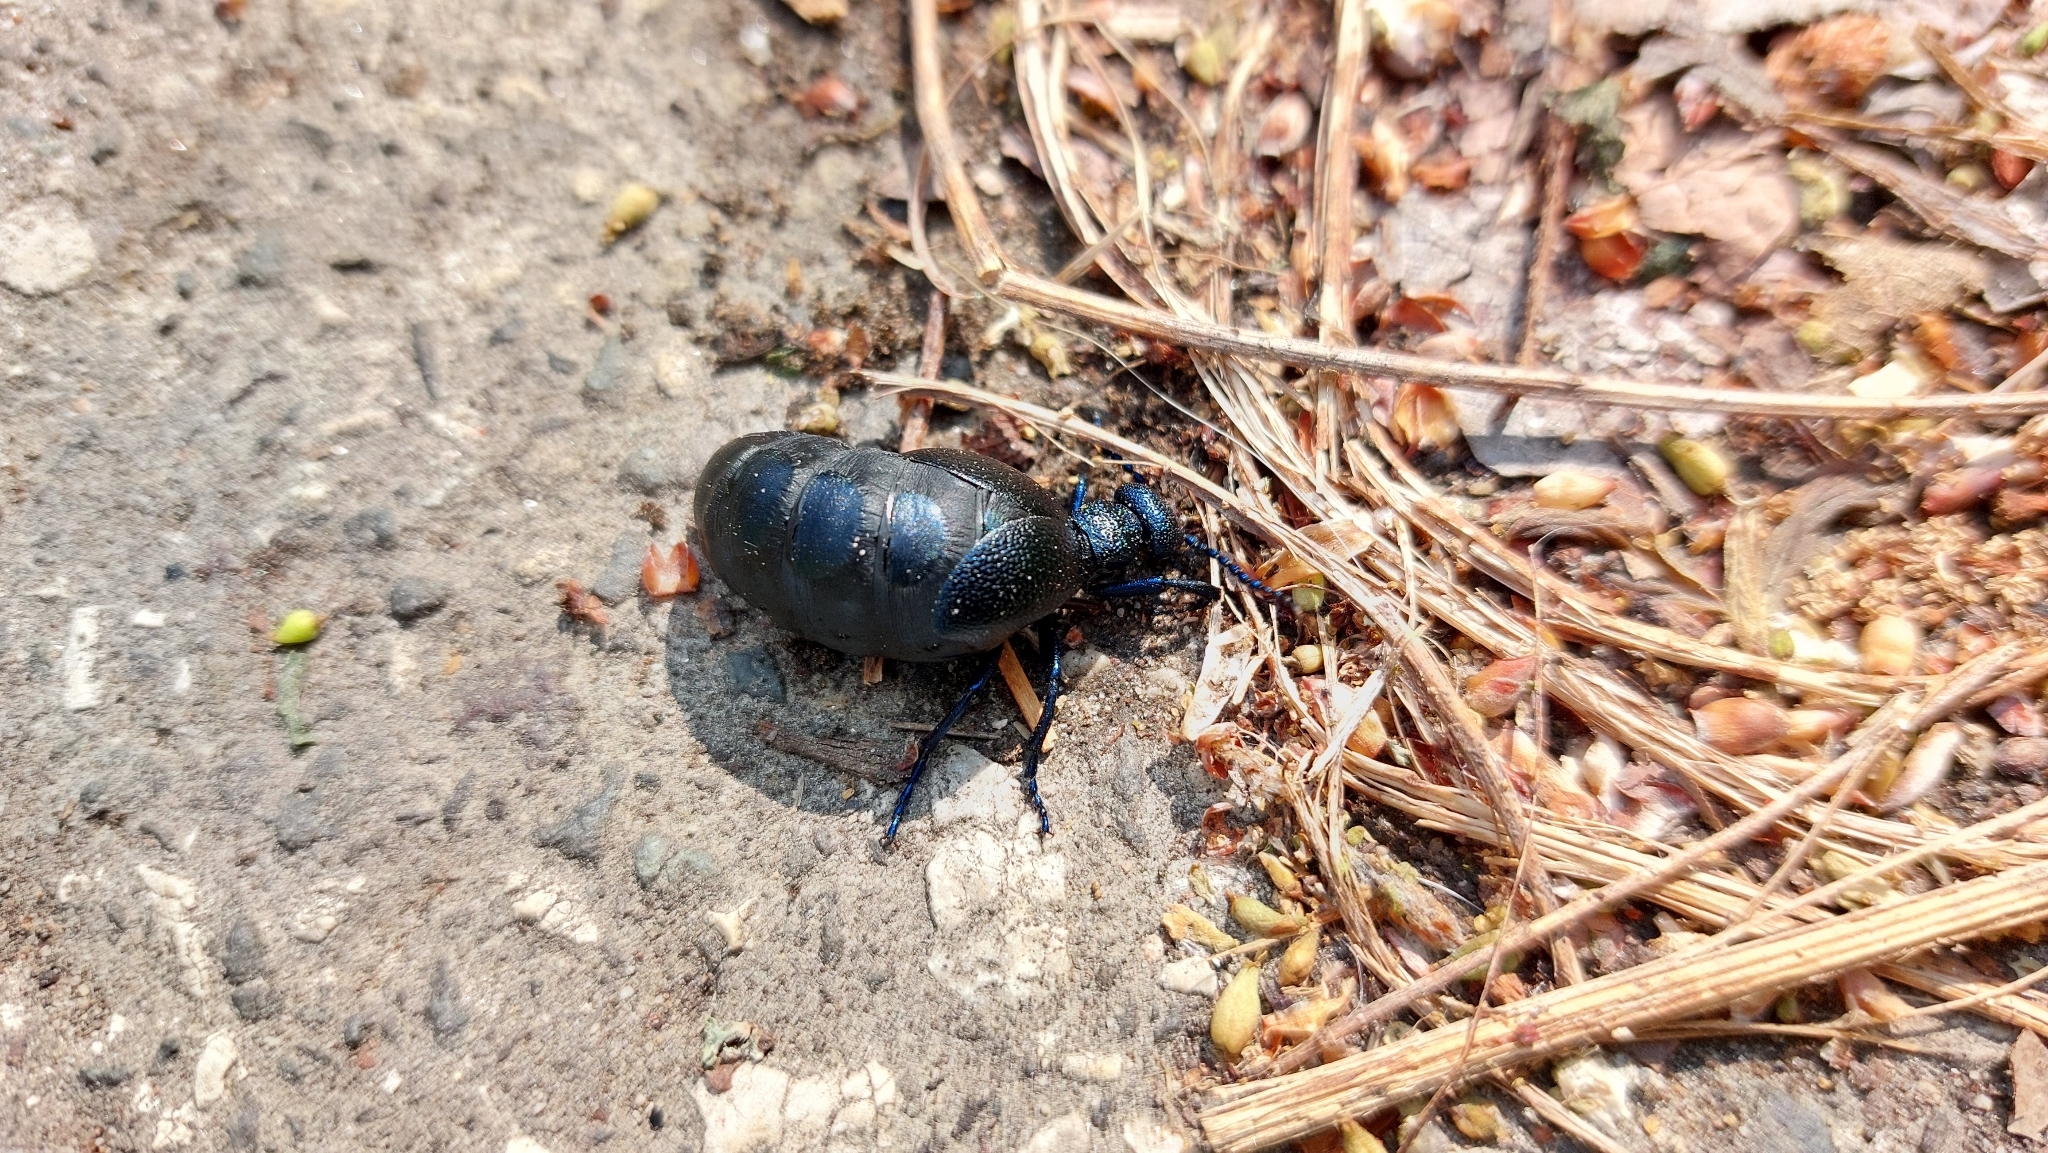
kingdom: Animalia
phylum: Arthropoda
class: Insecta
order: Coleoptera
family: Meloidae
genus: Meloe
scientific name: Meloe proscarabaeus
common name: Black oil-beetle
